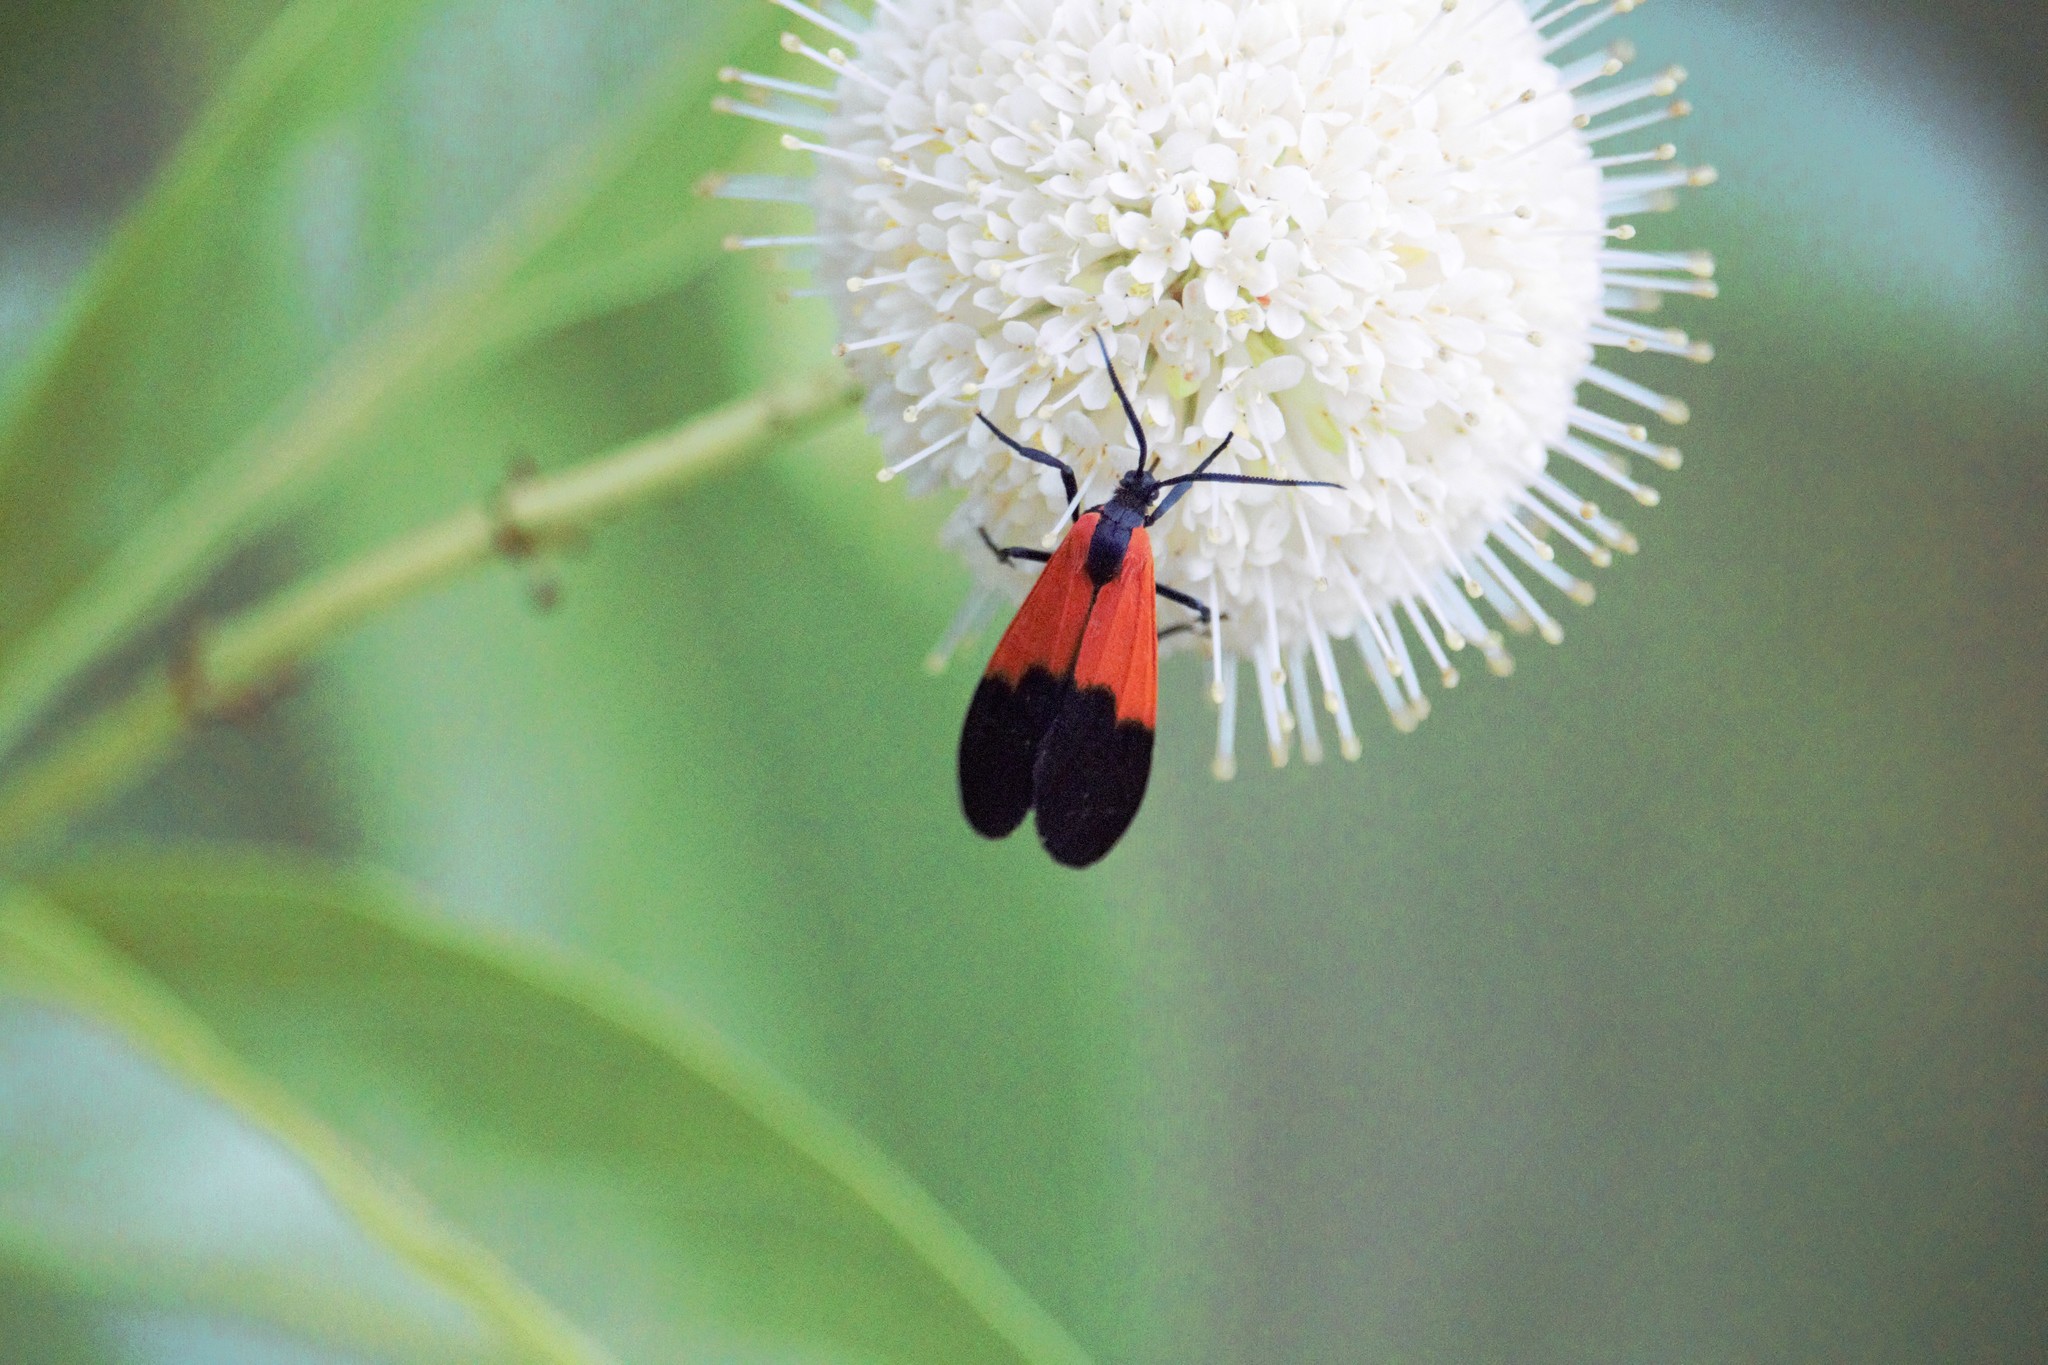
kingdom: Animalia
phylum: Arthropoda
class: Insecta
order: Lepidoptera
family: Erebidae
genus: Lycomorpha
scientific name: Lycomorpha pholus
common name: Black-and-yellow lichen moth
